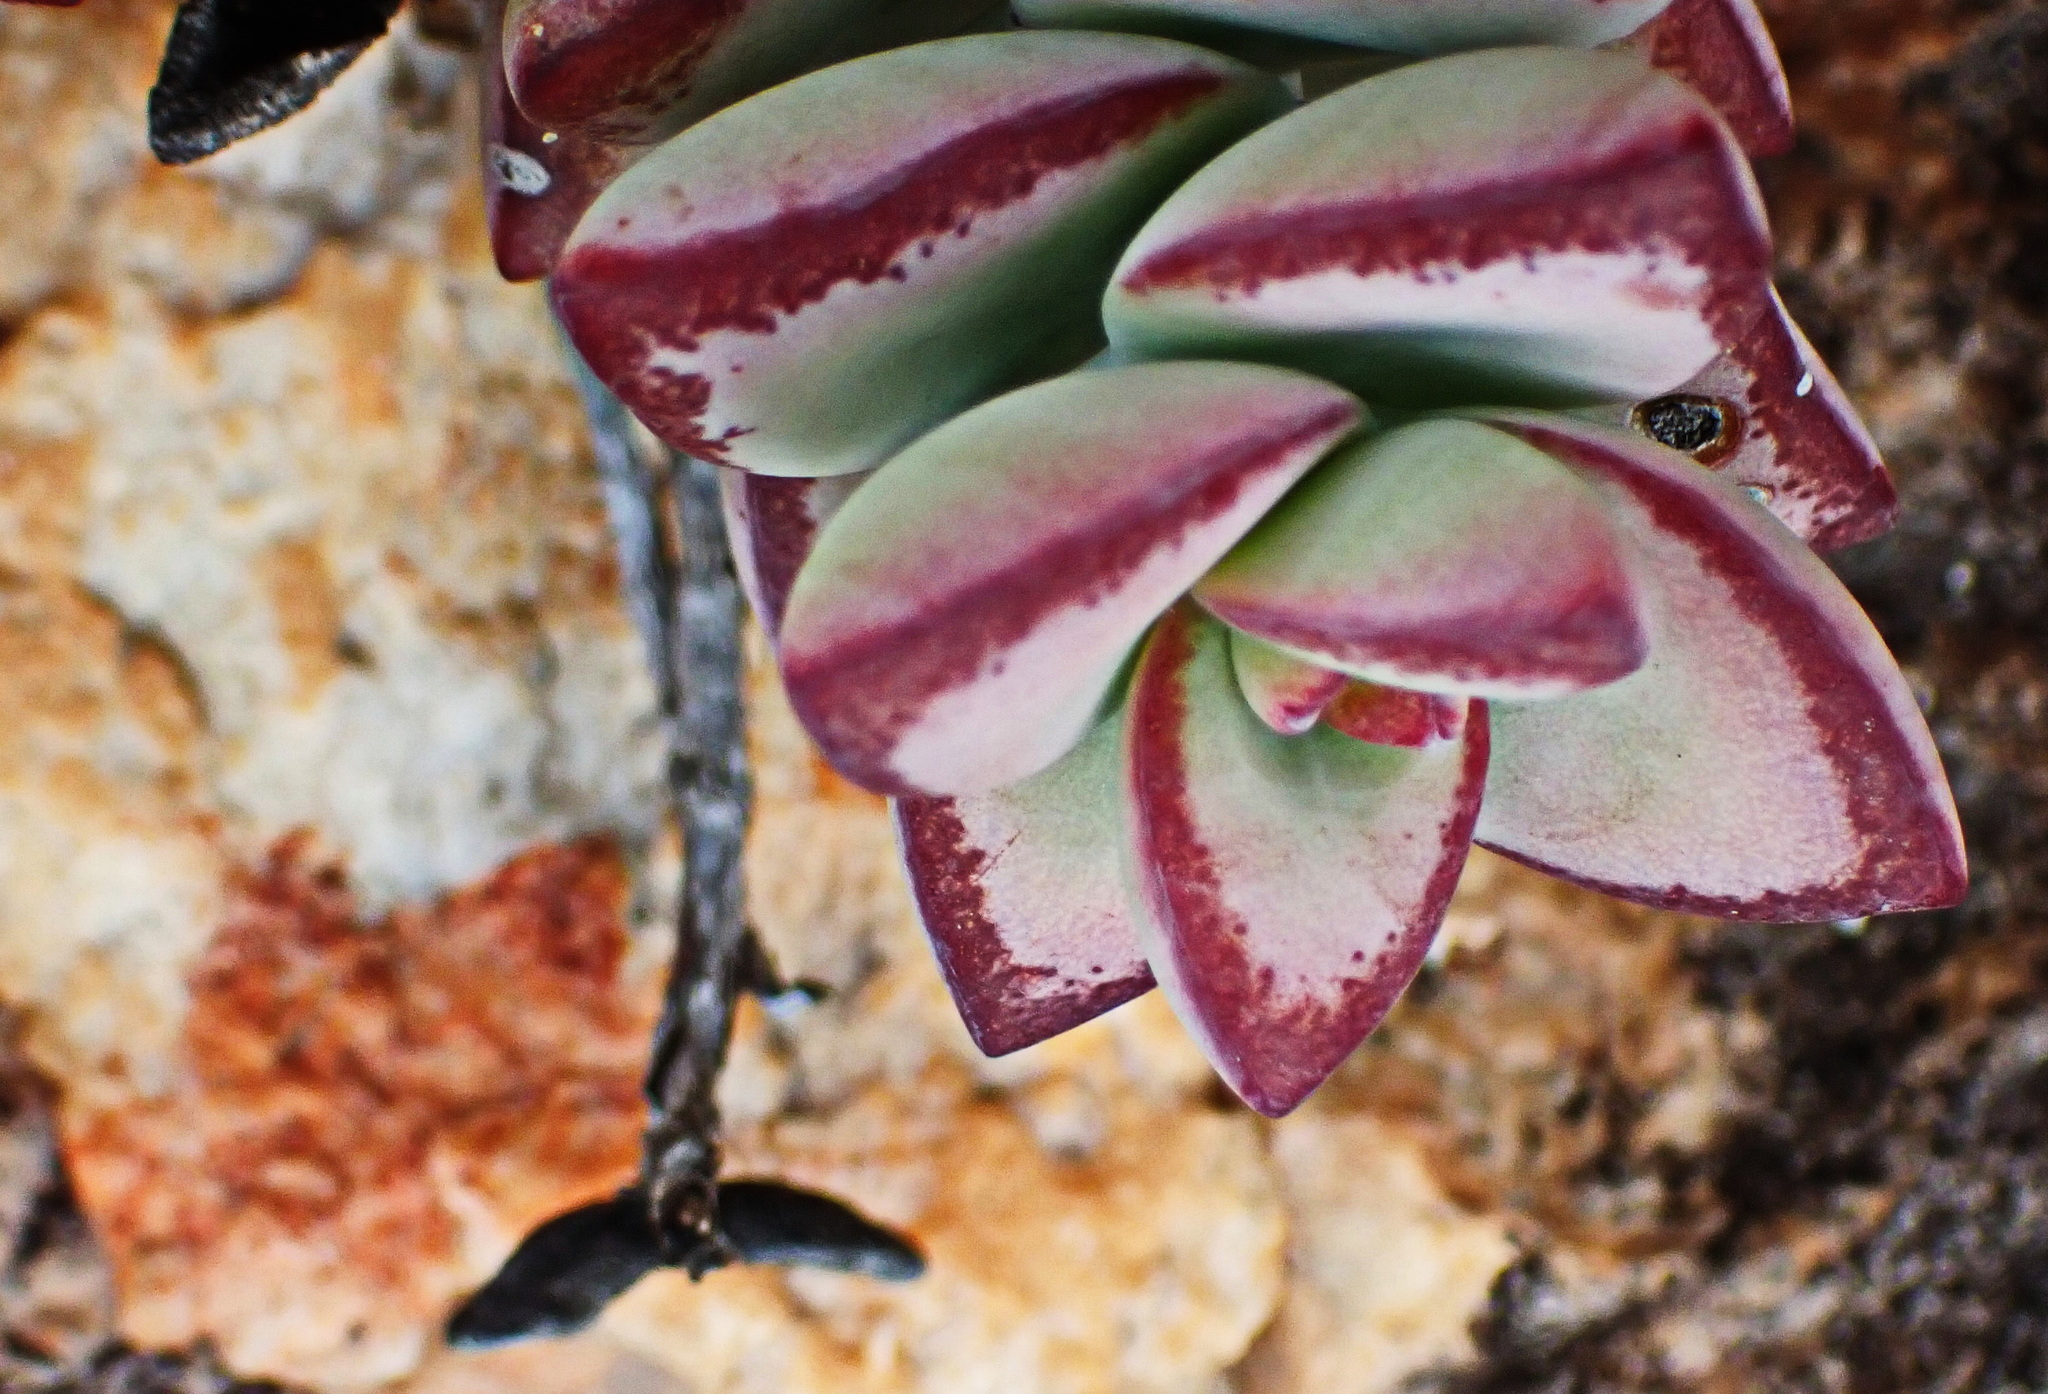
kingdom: Plantae
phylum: Tracheophyta
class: Magnoliopsida
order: Saxifragales
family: Crassulaceae
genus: Crassula
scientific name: Crassula rupestris
